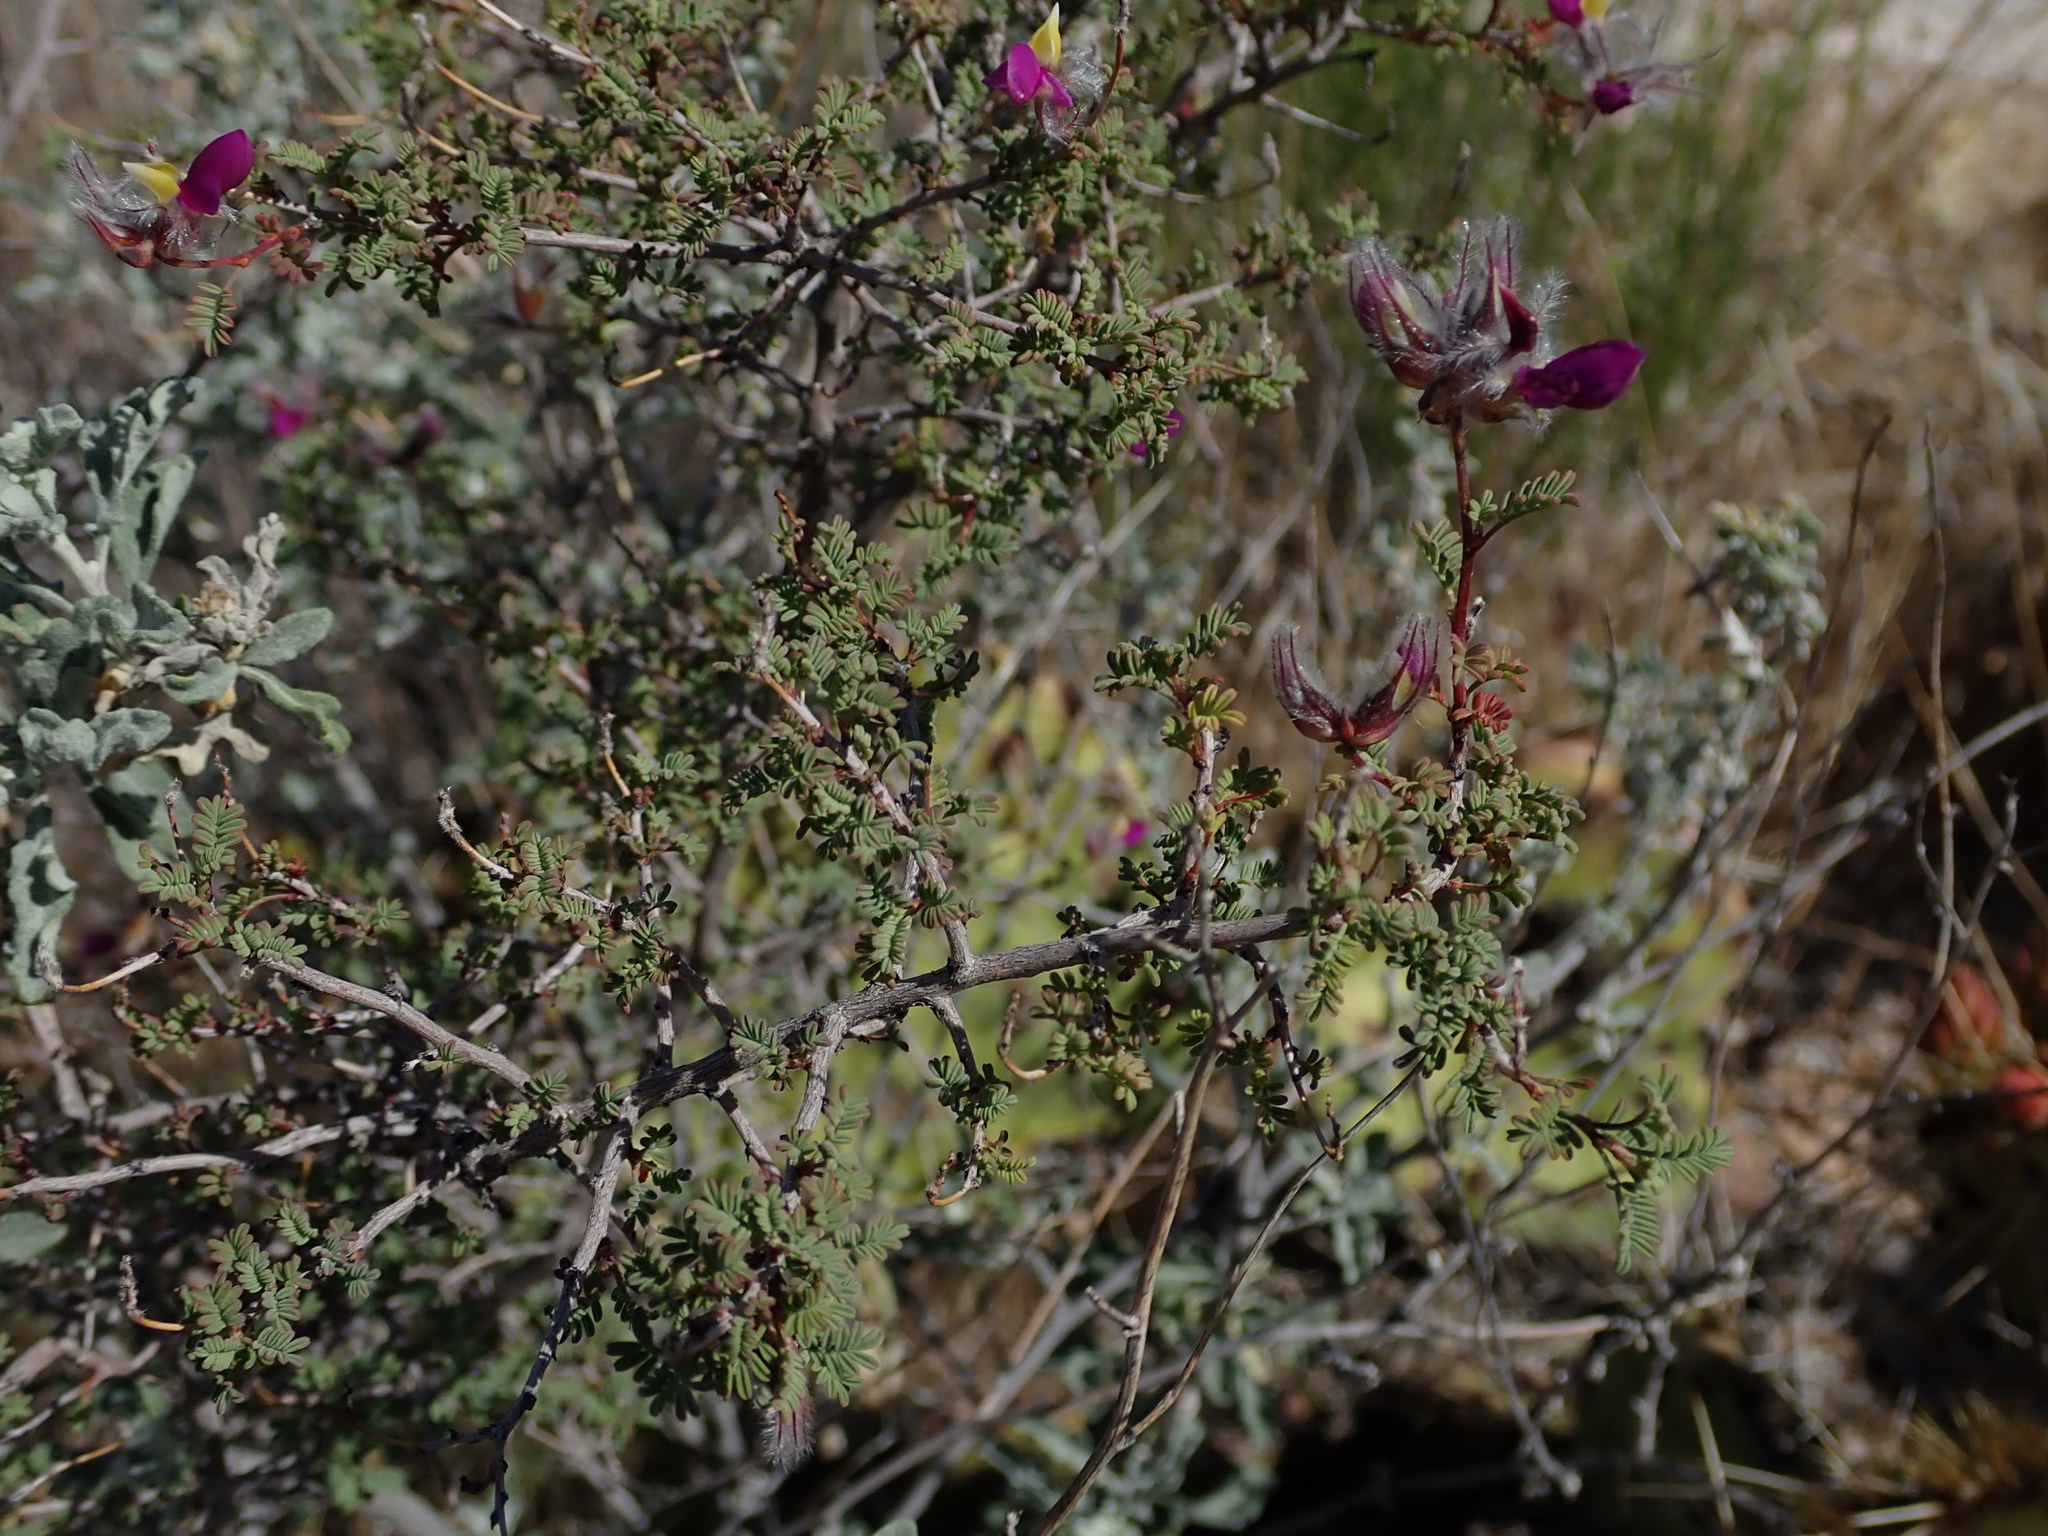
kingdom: Plantae
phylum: Tracheophyta
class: Magnoliopsida
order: Fabales
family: Fabaceae
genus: Dalea
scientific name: Dalea formosa
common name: Feather-plume dalea
